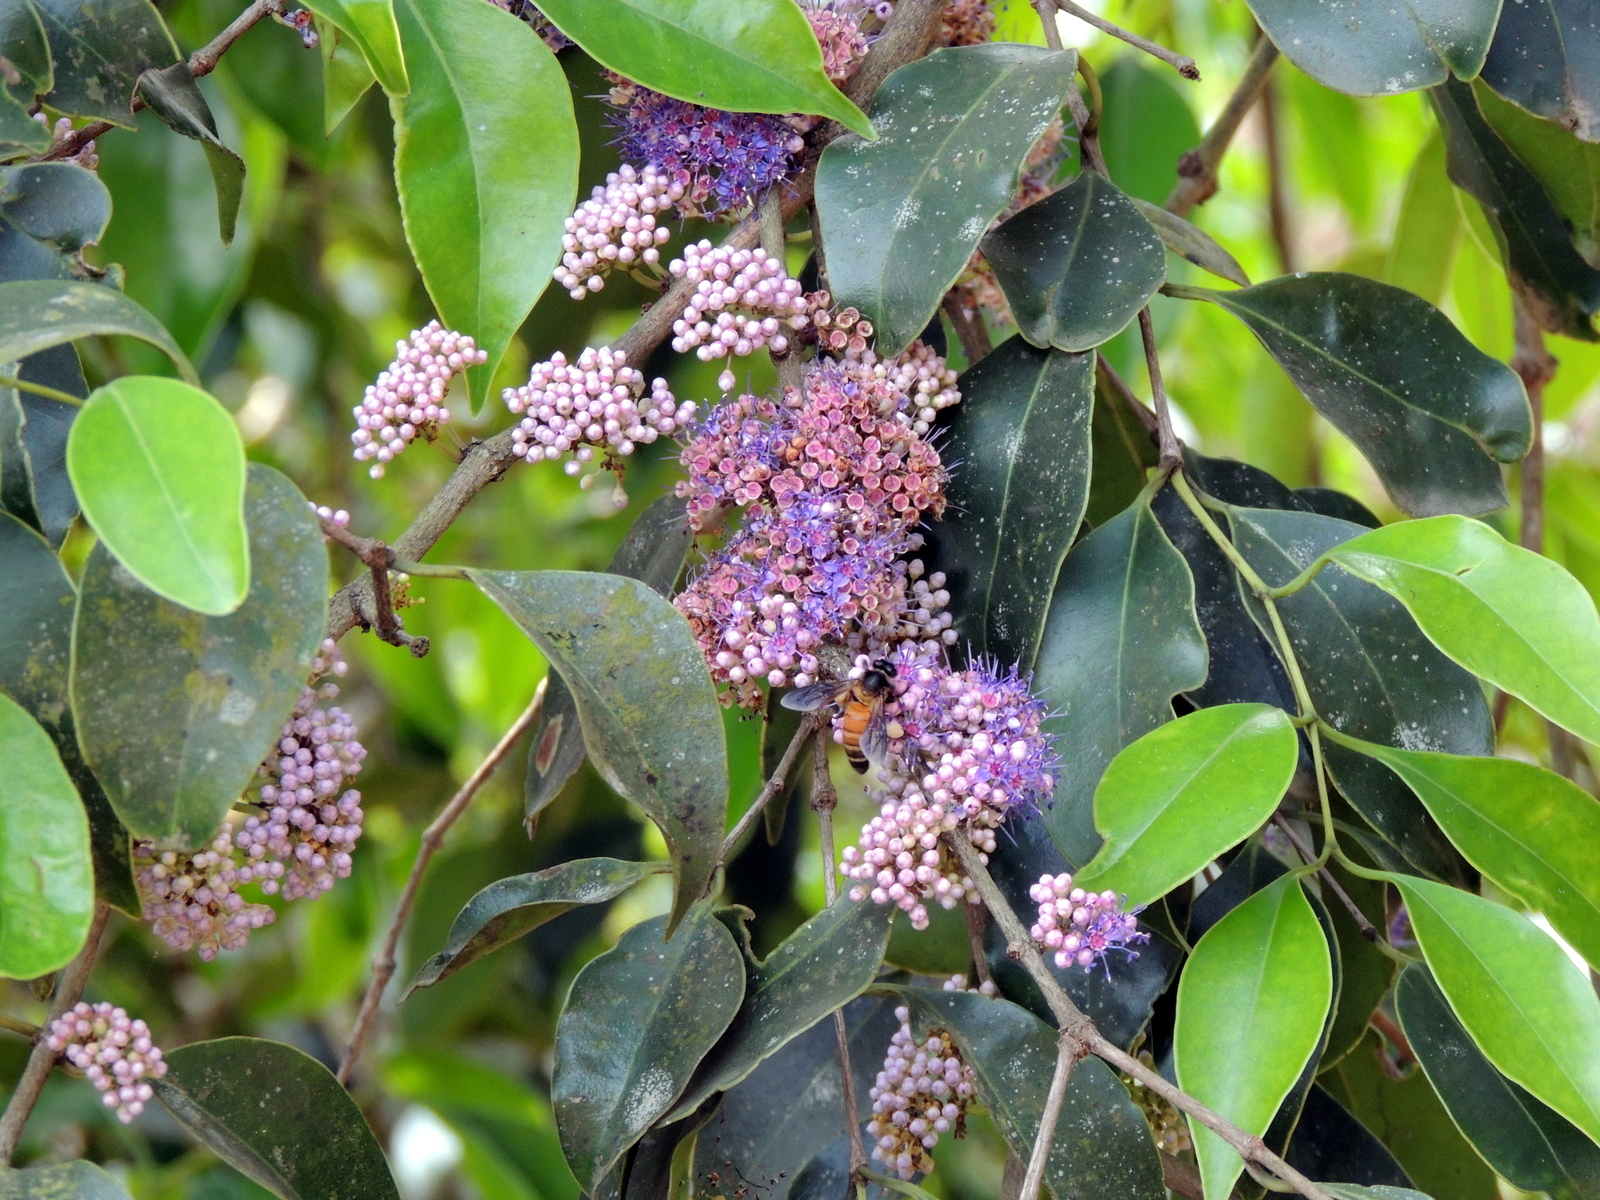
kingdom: Plantae
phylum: Tracheophyta
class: Magnoliopsida
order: Myrtales
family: Melastomataceae
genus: Memecylon
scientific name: Memecylon
